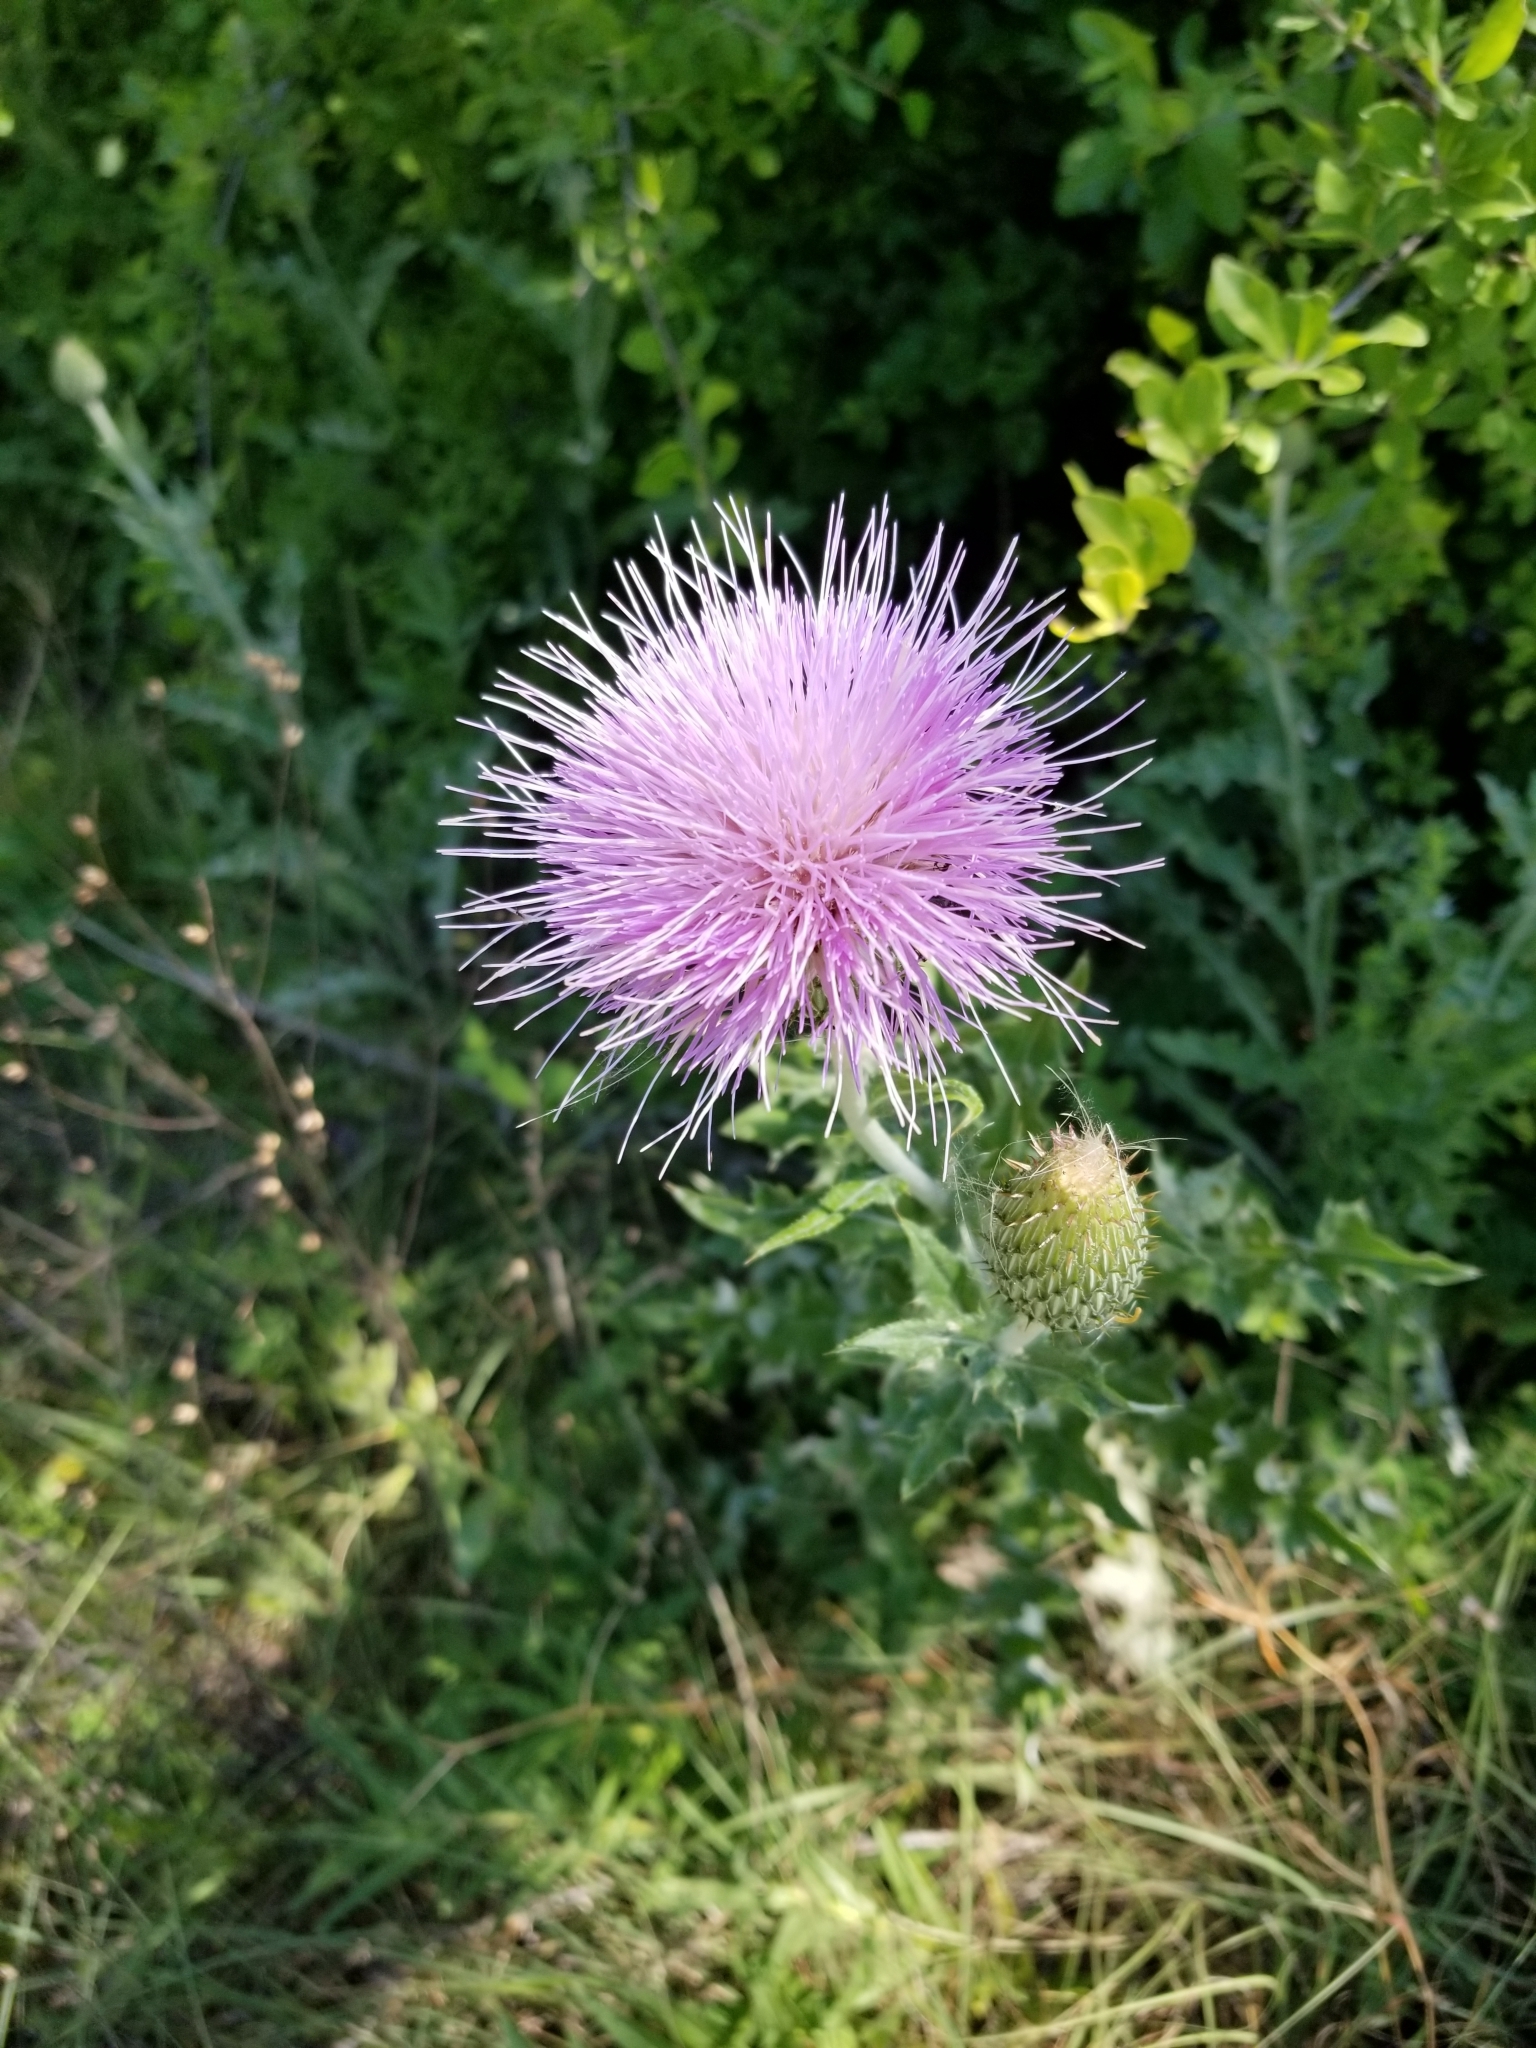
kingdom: Plantae
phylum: Tracheophyta
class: Magnoliopsida
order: Asterales
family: Asteraceae
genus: Cirsium
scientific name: Cirsium undulatum
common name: Pasture thistle
